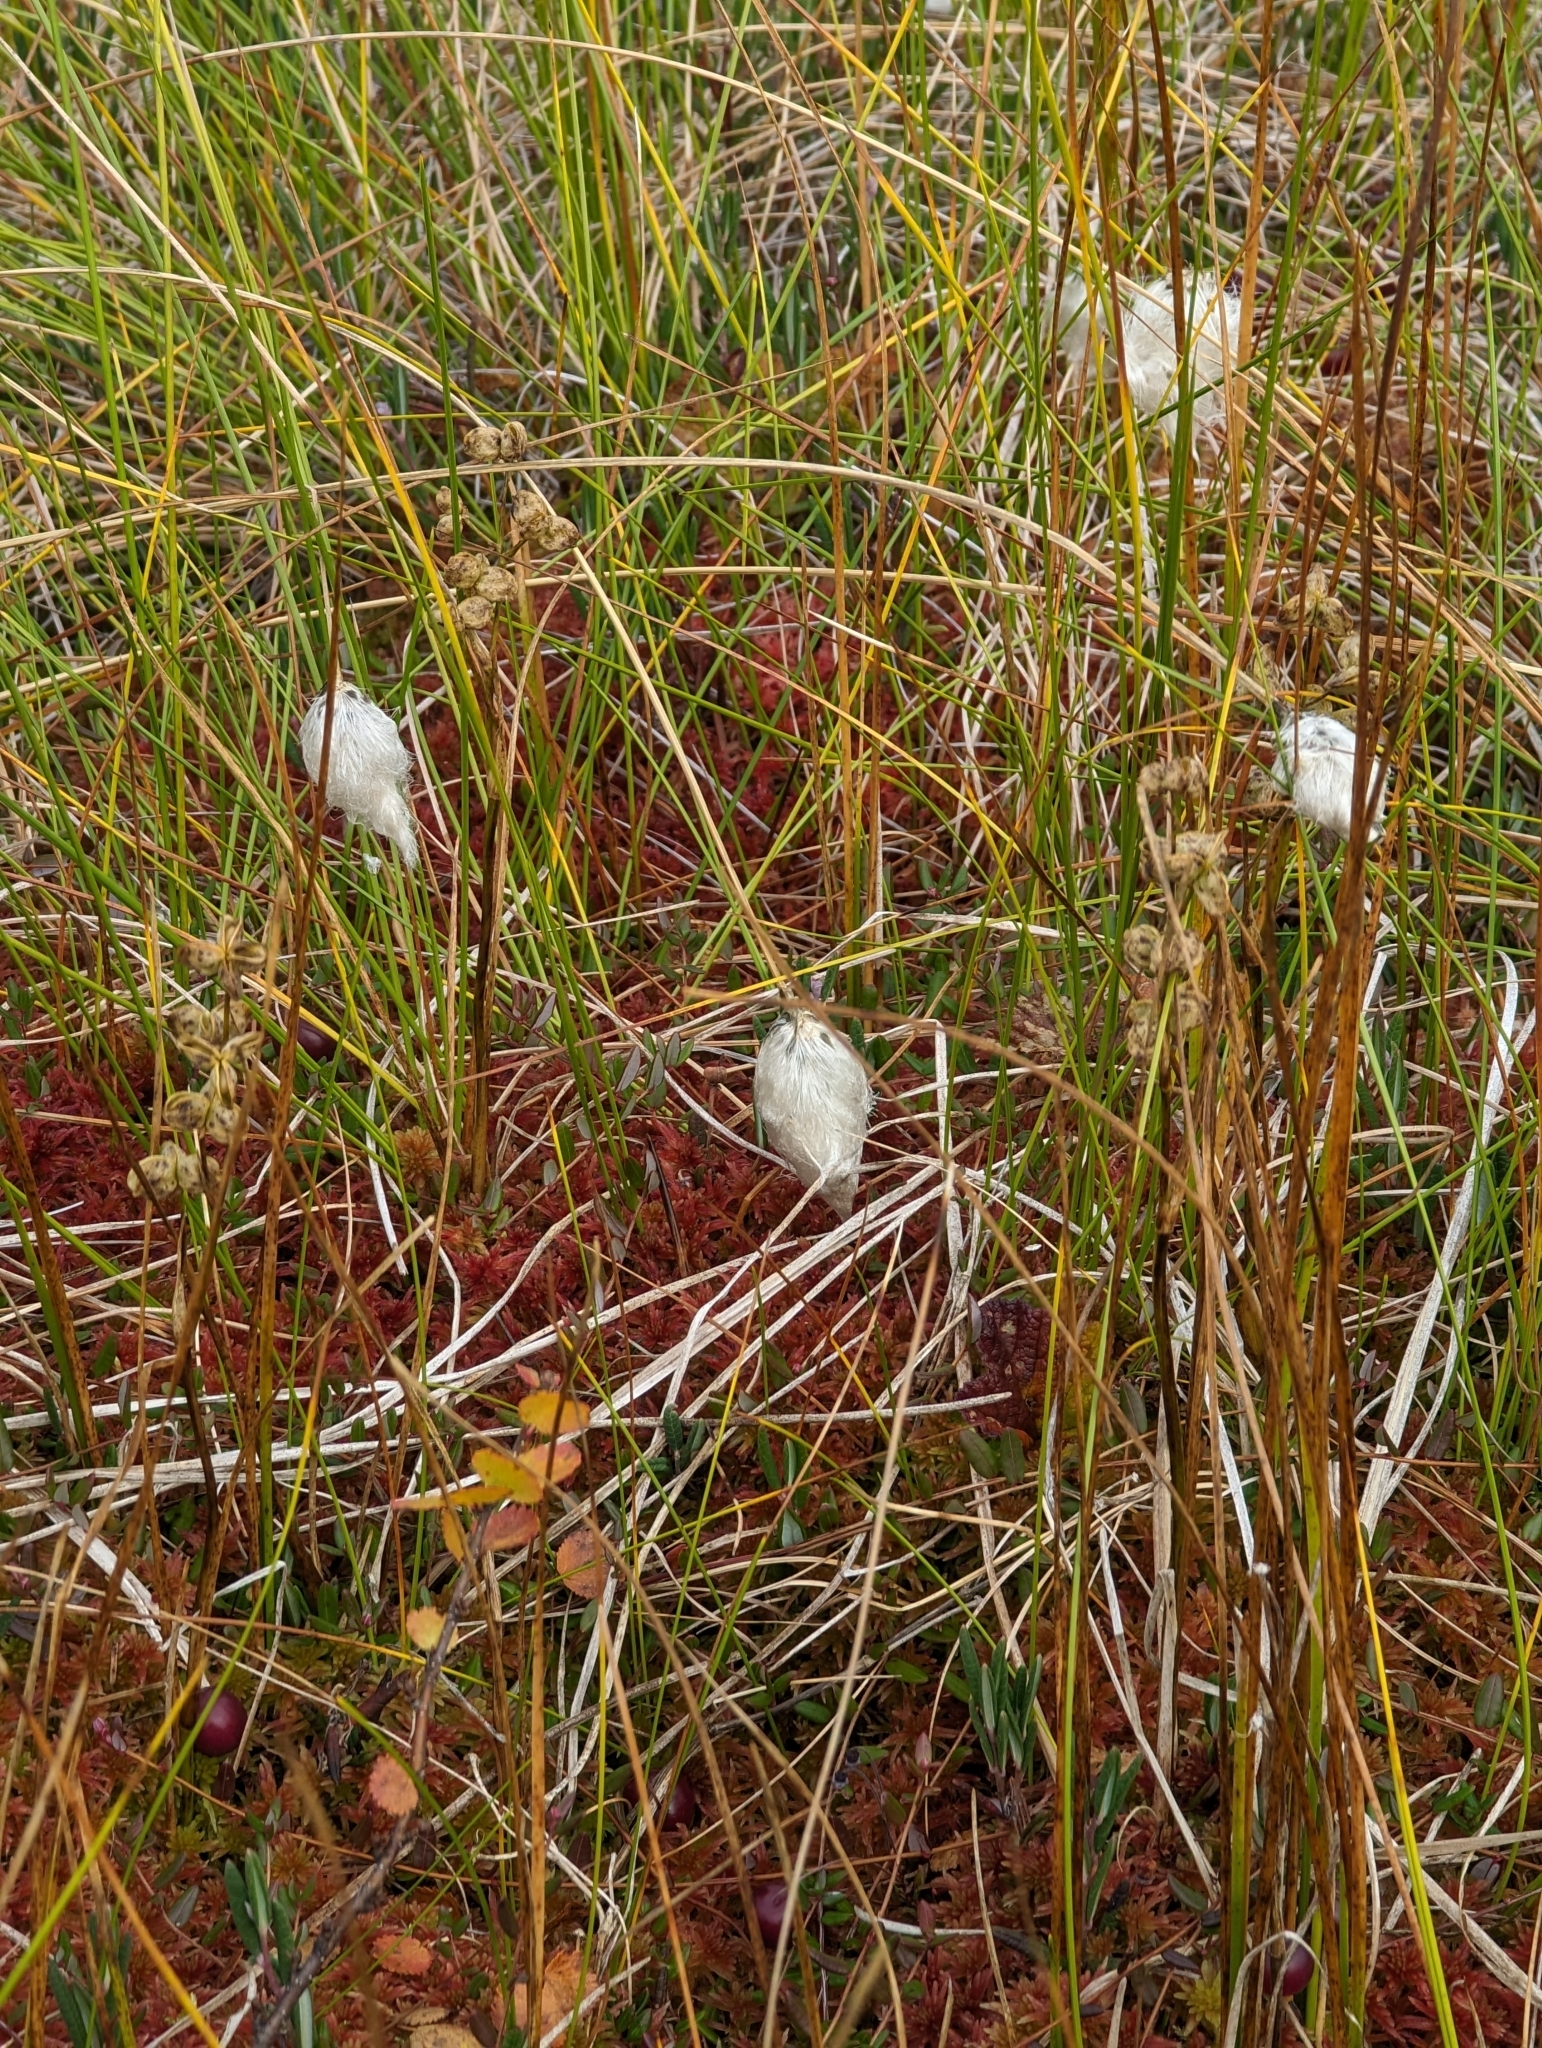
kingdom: Plantae
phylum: Tracheophyta
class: Liliopsida
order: Poales
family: Cyperaceae
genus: Eriophorum
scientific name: Eriophorum vaginatum
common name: Hare's-tail cottongrass
